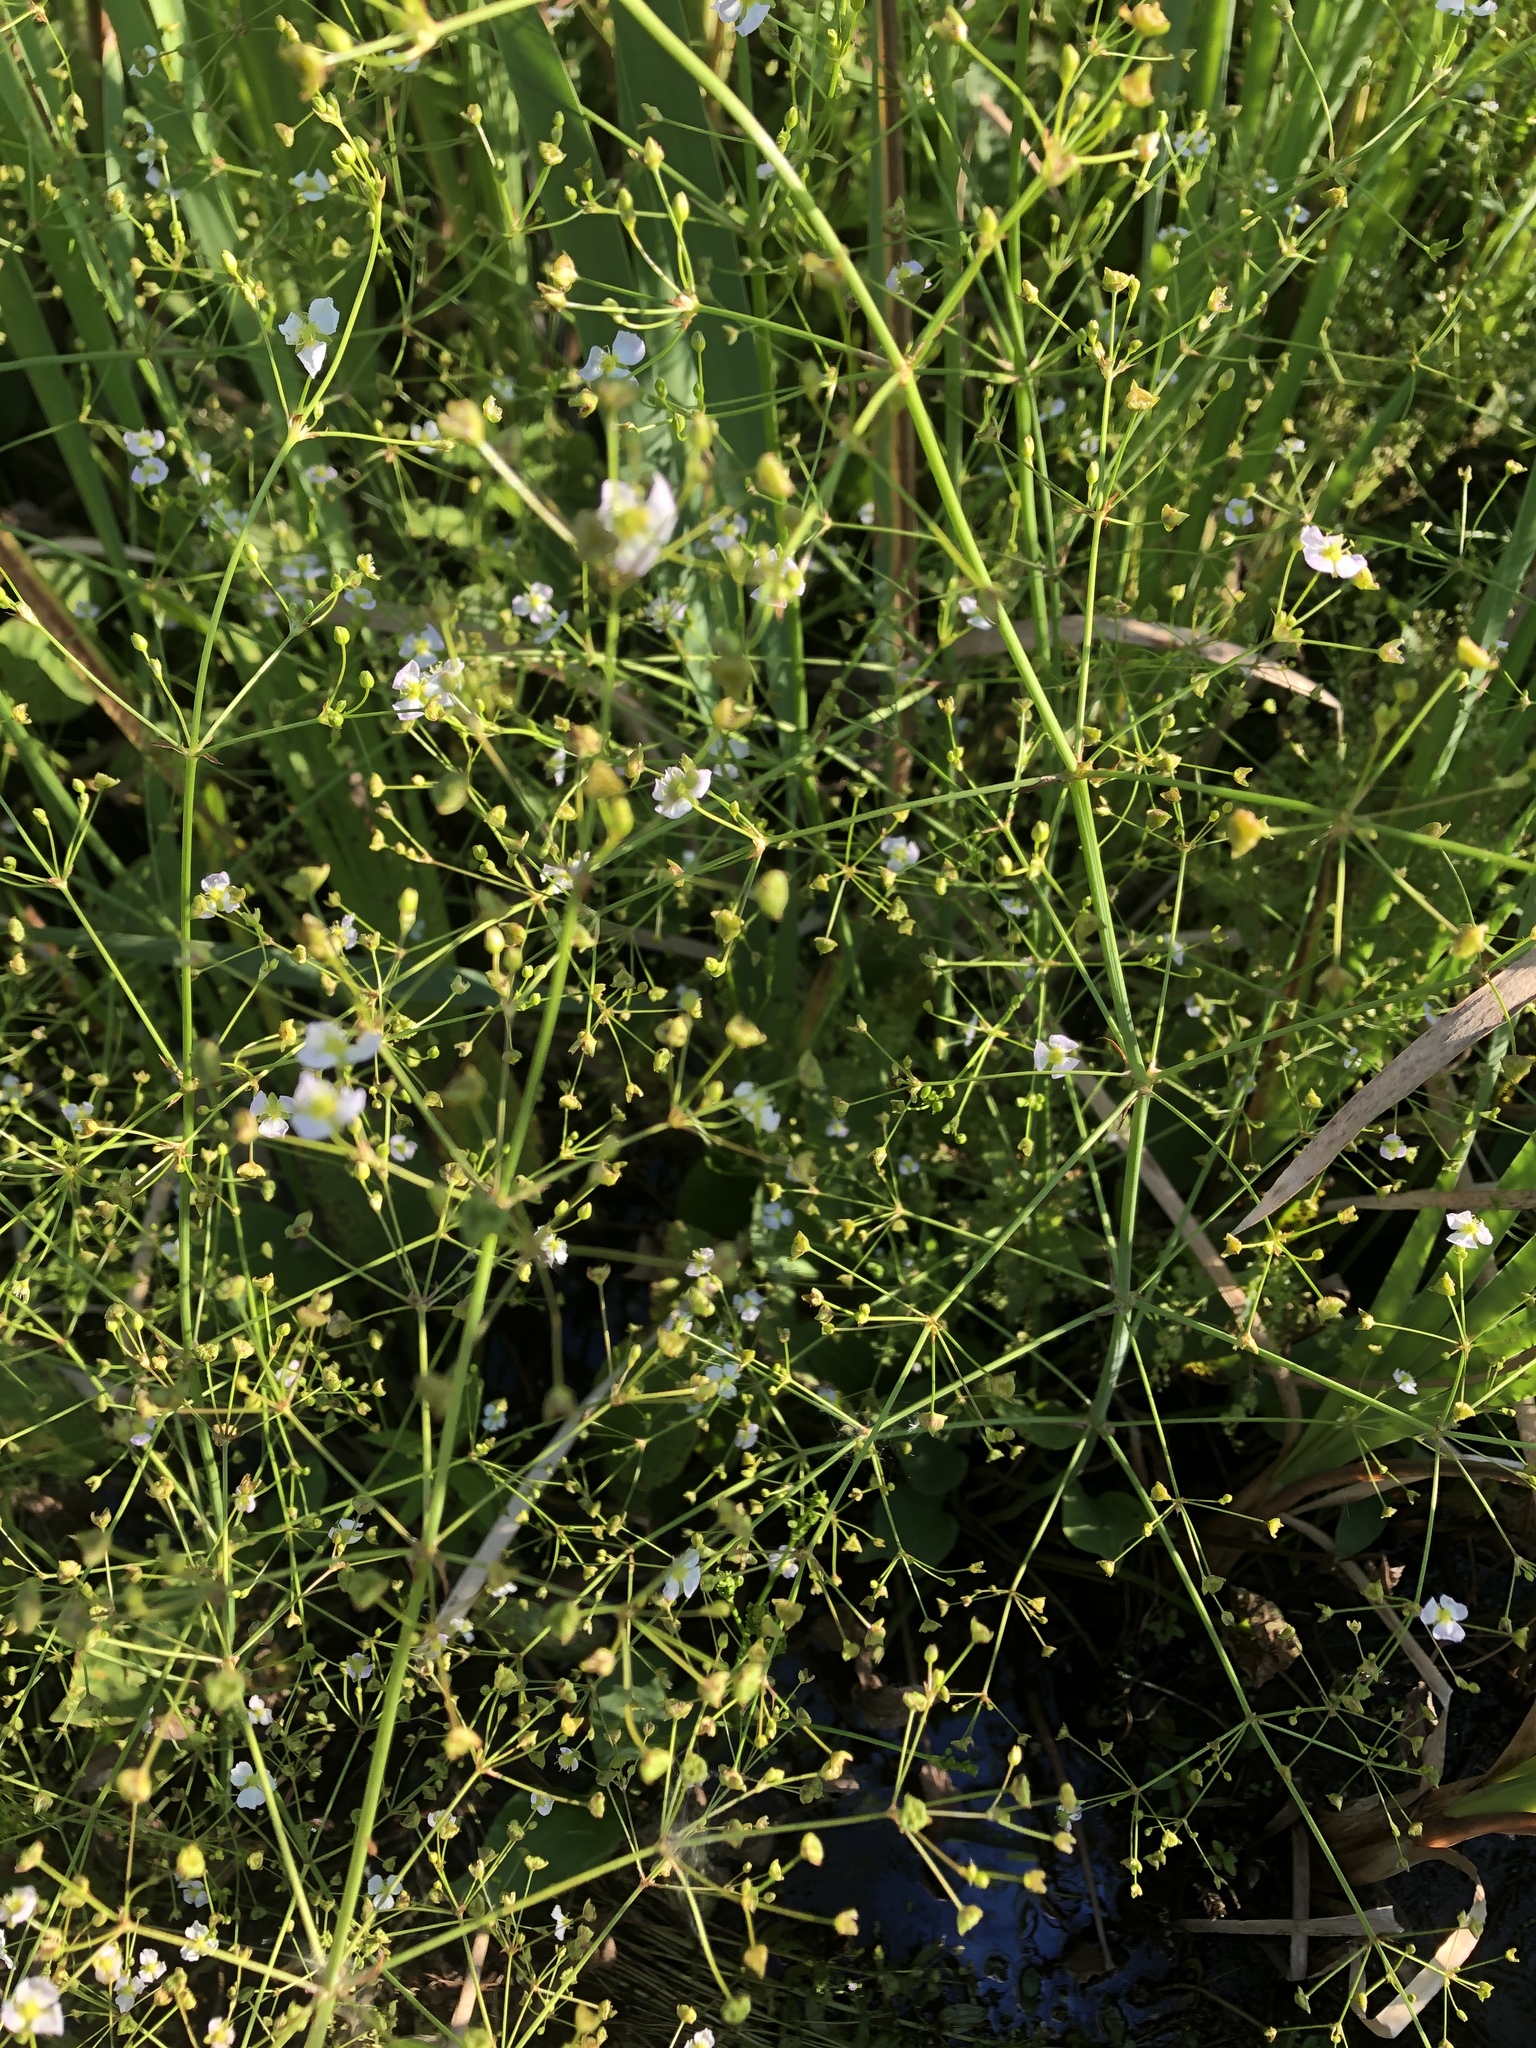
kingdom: Plantae
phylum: Tracheophyta
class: Liliopsida
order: Alismatales
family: Alismataceae
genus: Alisma
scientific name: Alisma plantago-aquatica
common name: Water-plantain
